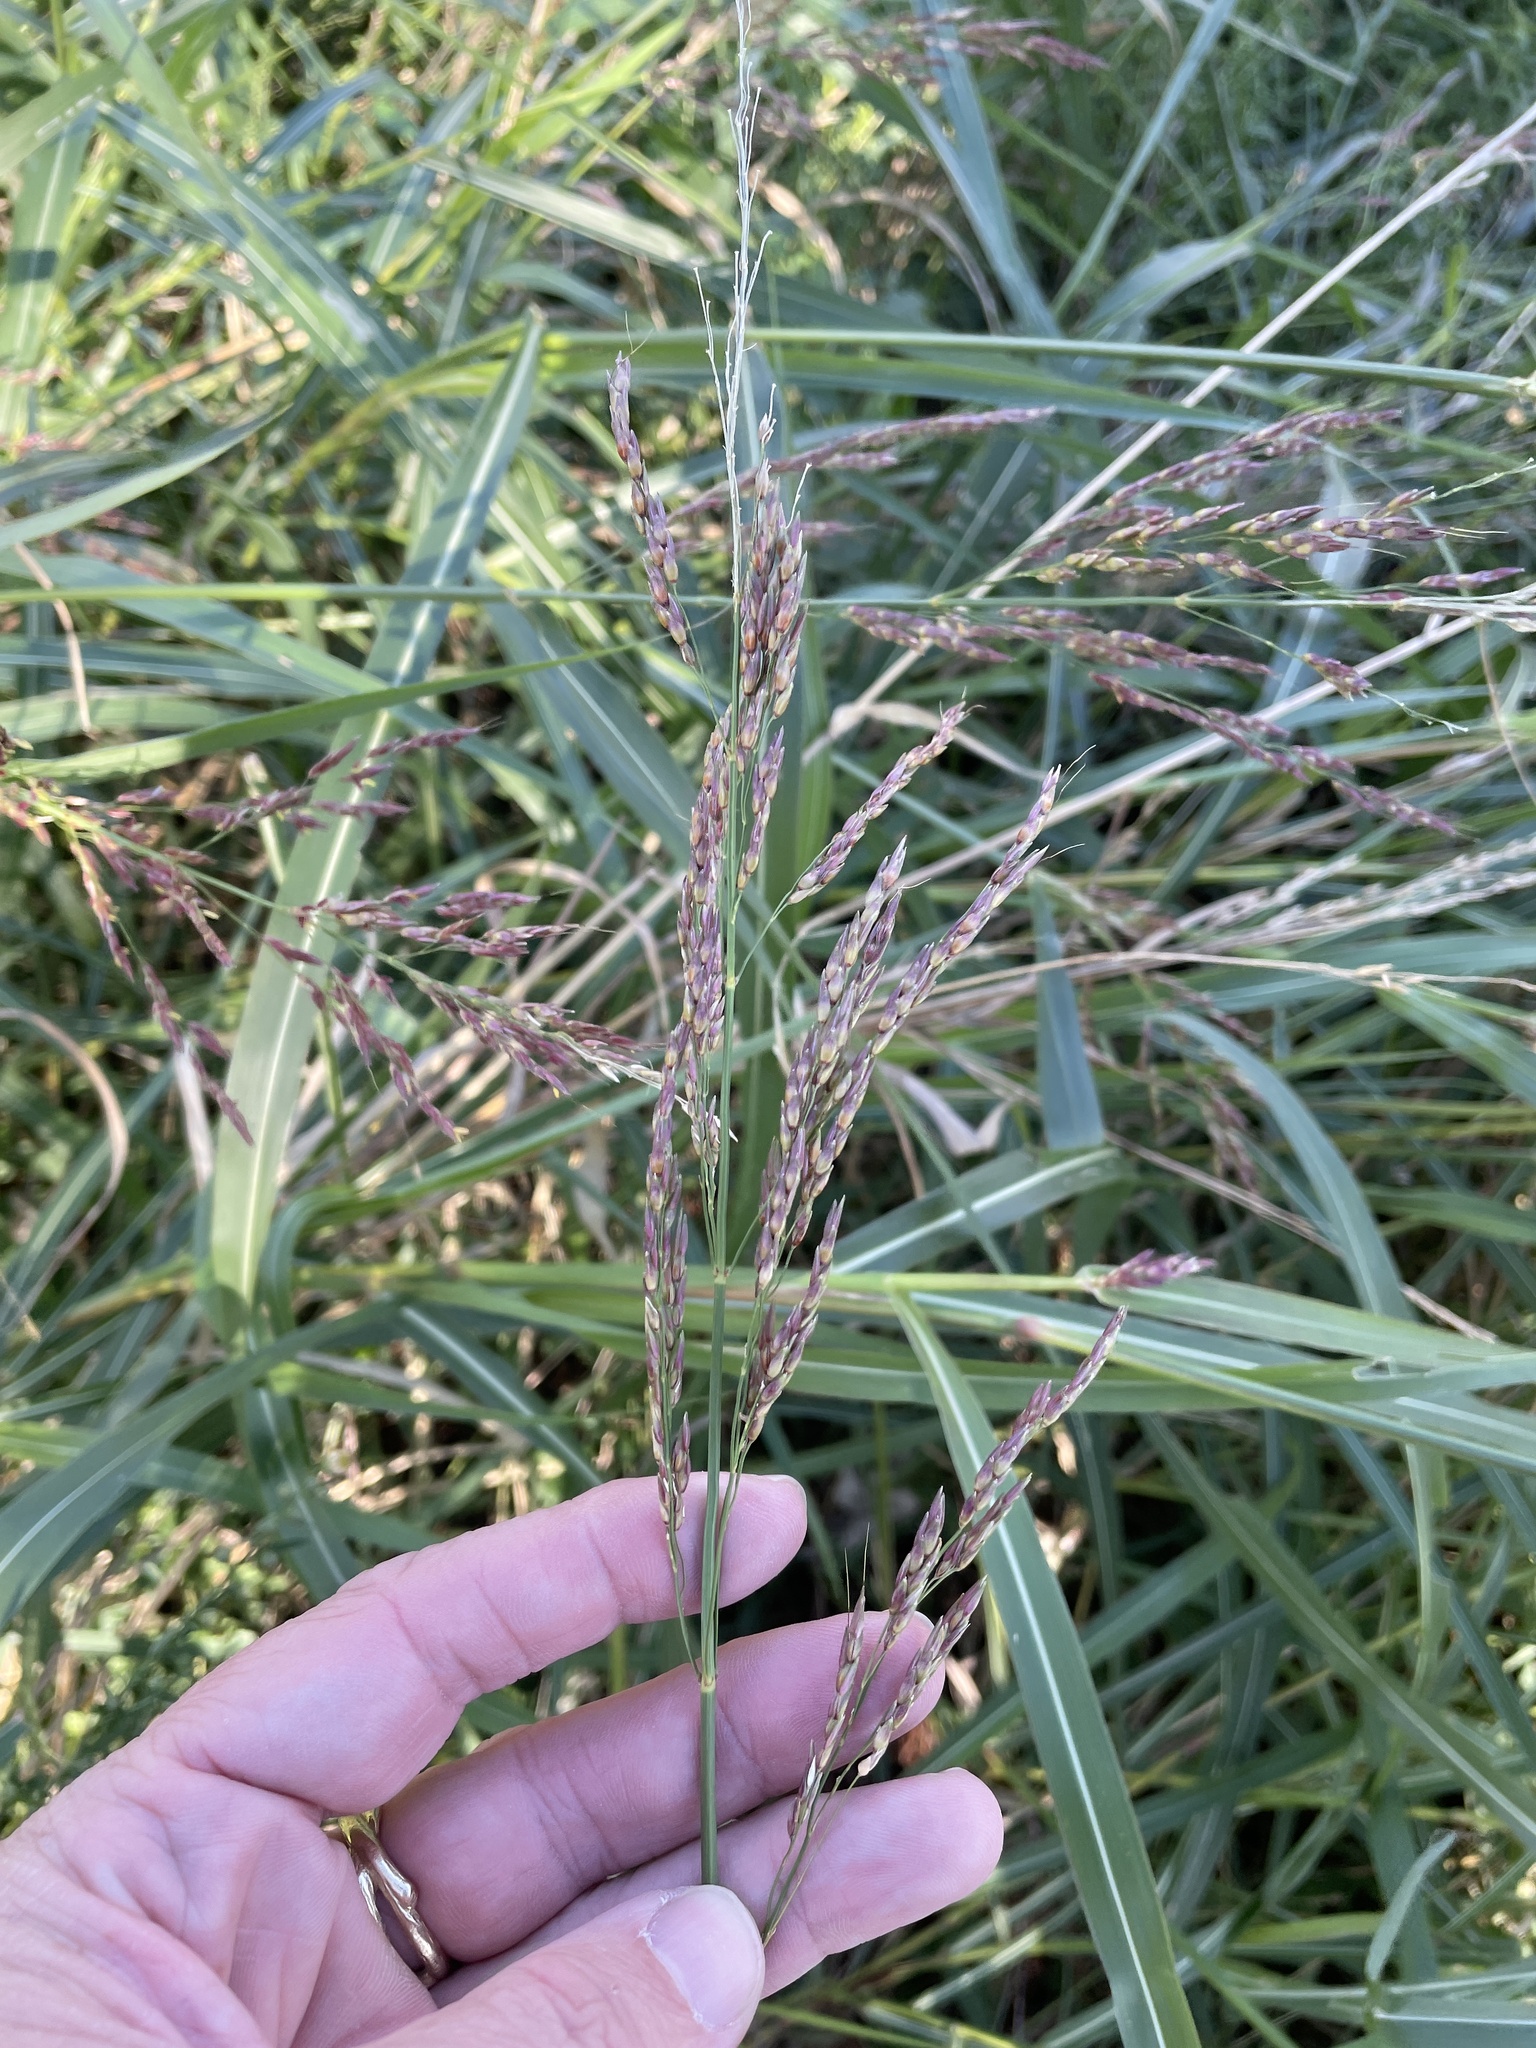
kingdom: Plantae
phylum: Tracheophyta
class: Liliopsida
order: Poales
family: Poaceae
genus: Sorghum
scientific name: Sorghum halepense
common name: Johnson-grass
